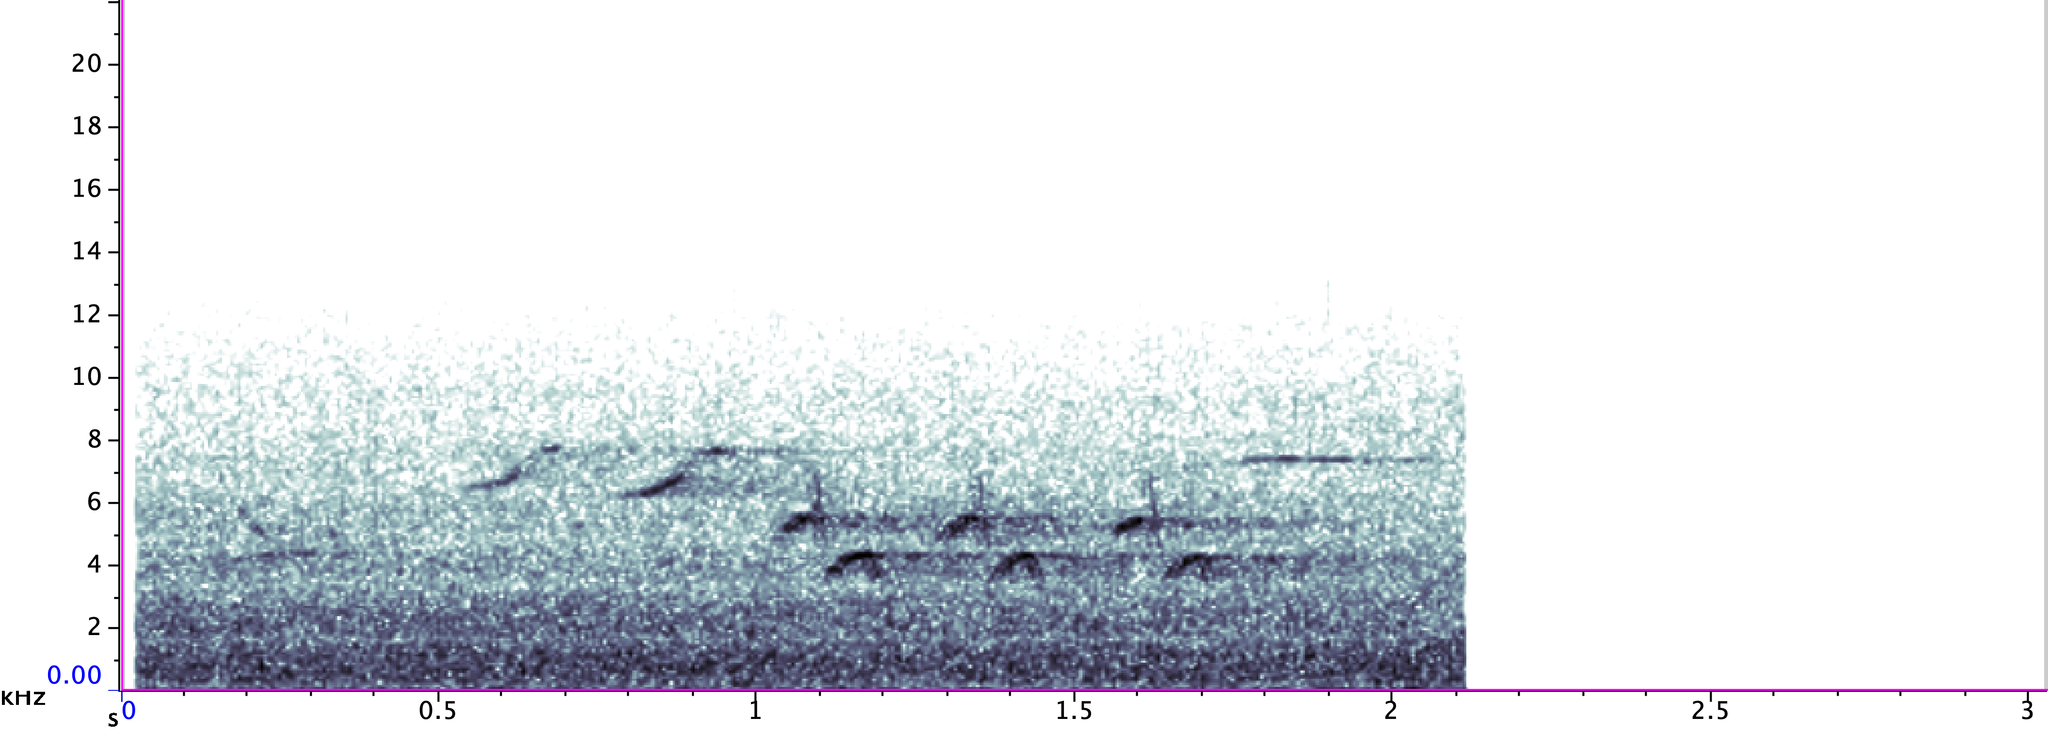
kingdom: Animalia
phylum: Chordata
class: Aves
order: Passeriformes
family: Cardinalidae
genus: Passerina
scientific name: Passerina cyanea
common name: Indigo bunting
